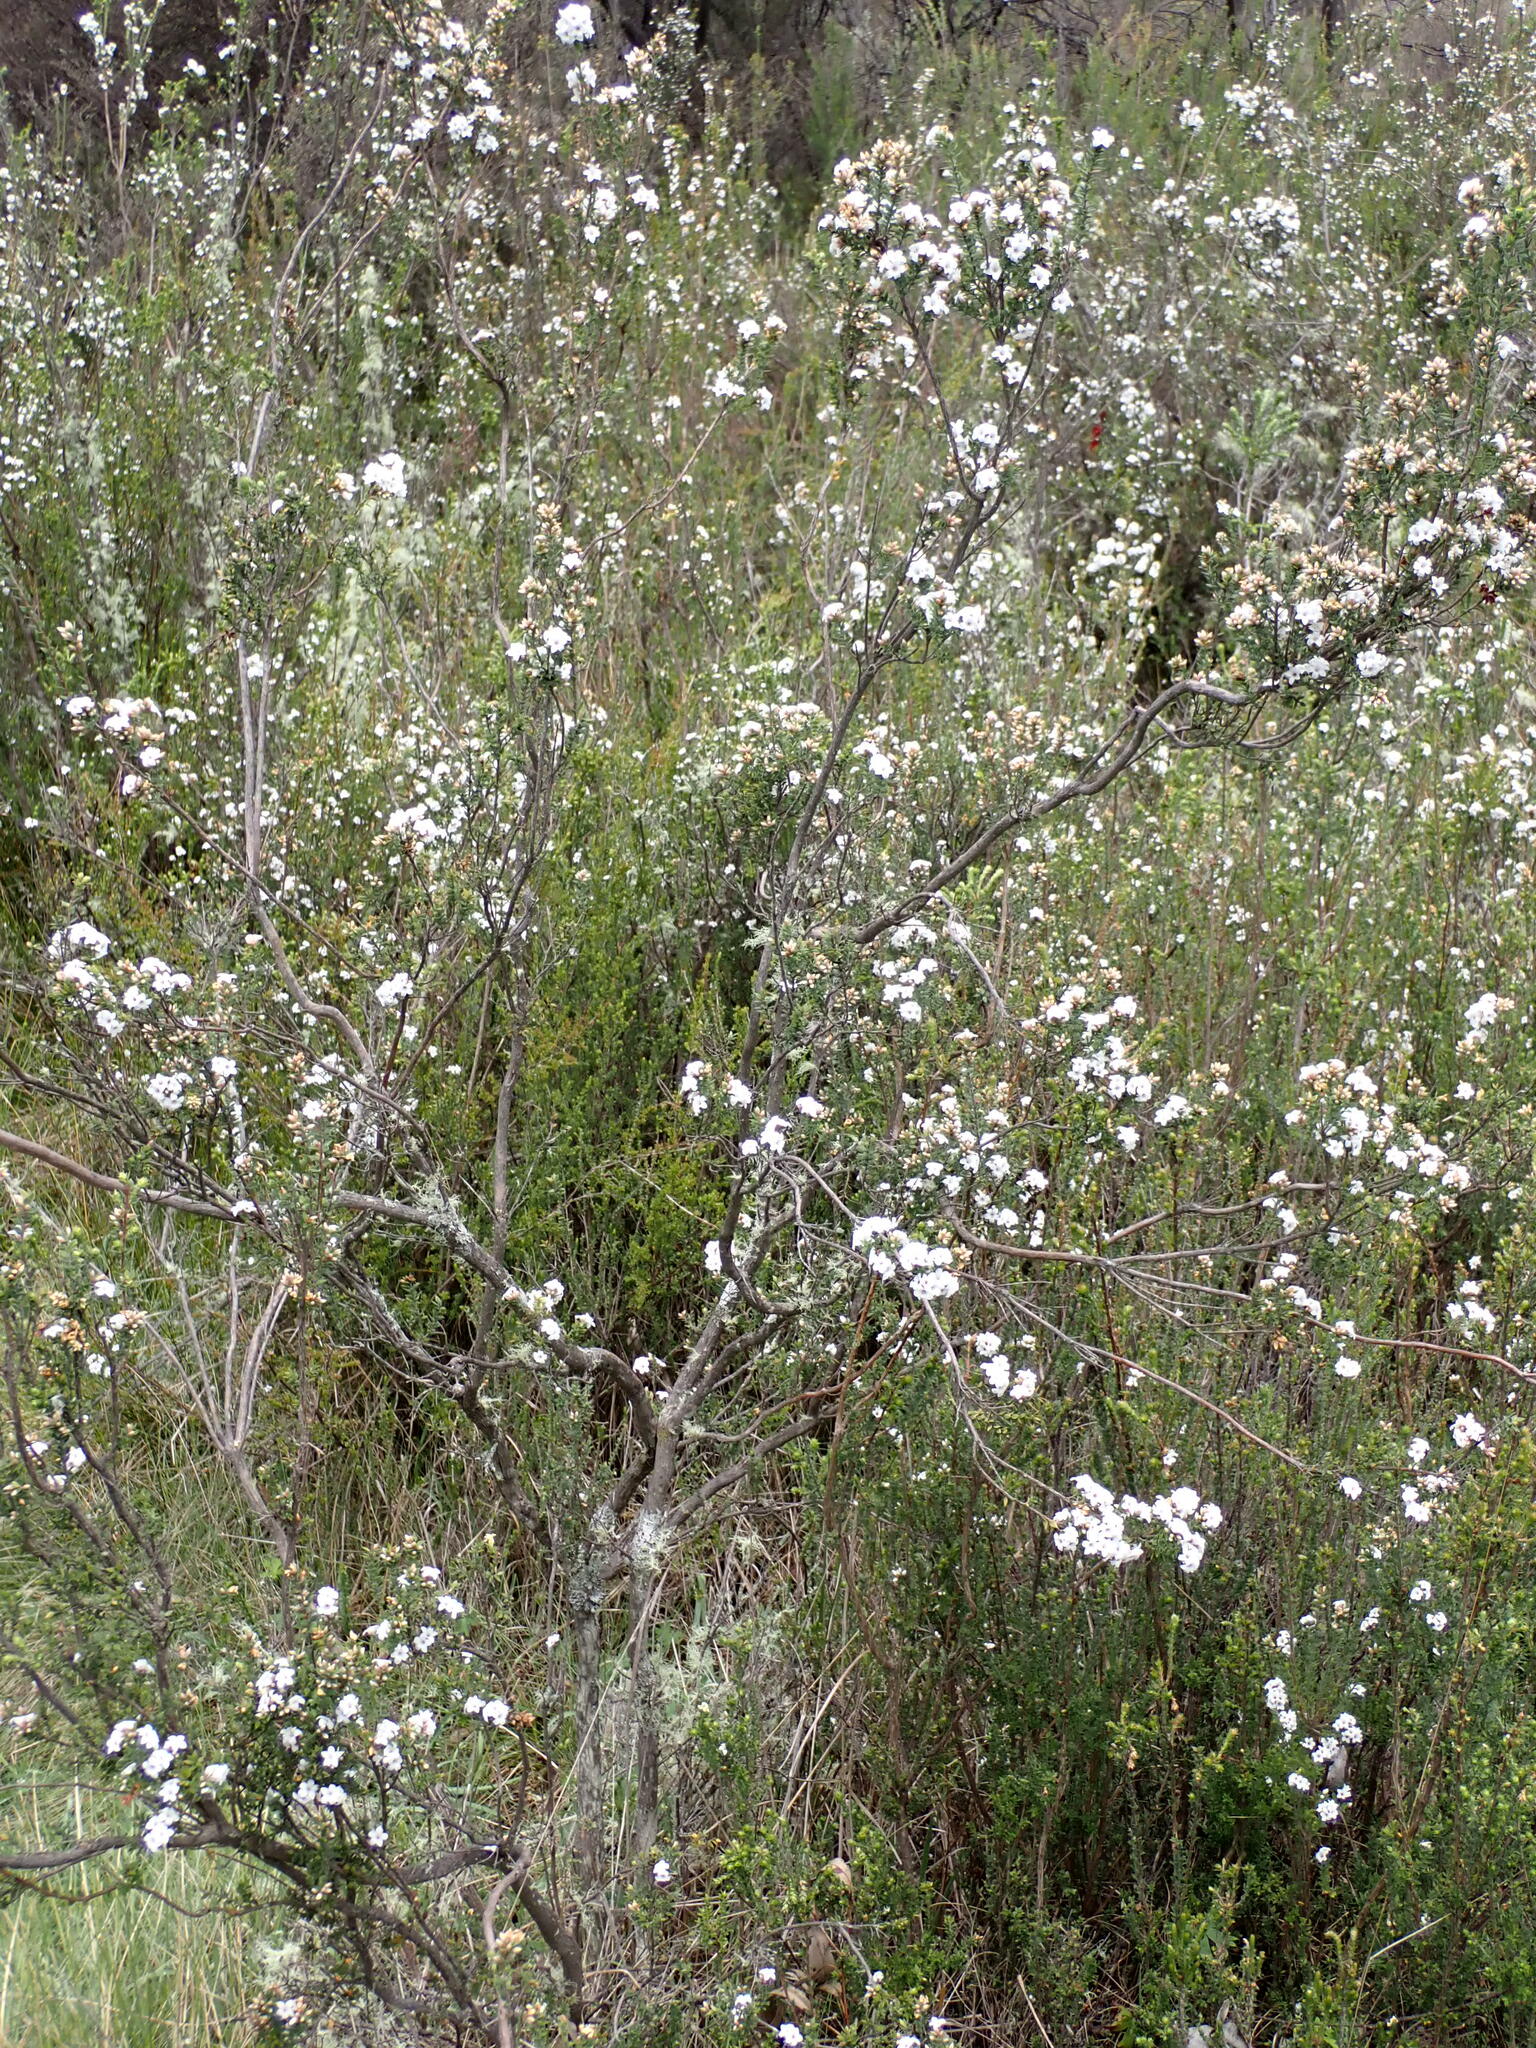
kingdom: Plantae
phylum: Tracheophyta
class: Magnoliopsida
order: Ericales
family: Ericaceae
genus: Epacris
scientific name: Epacris breviflora
